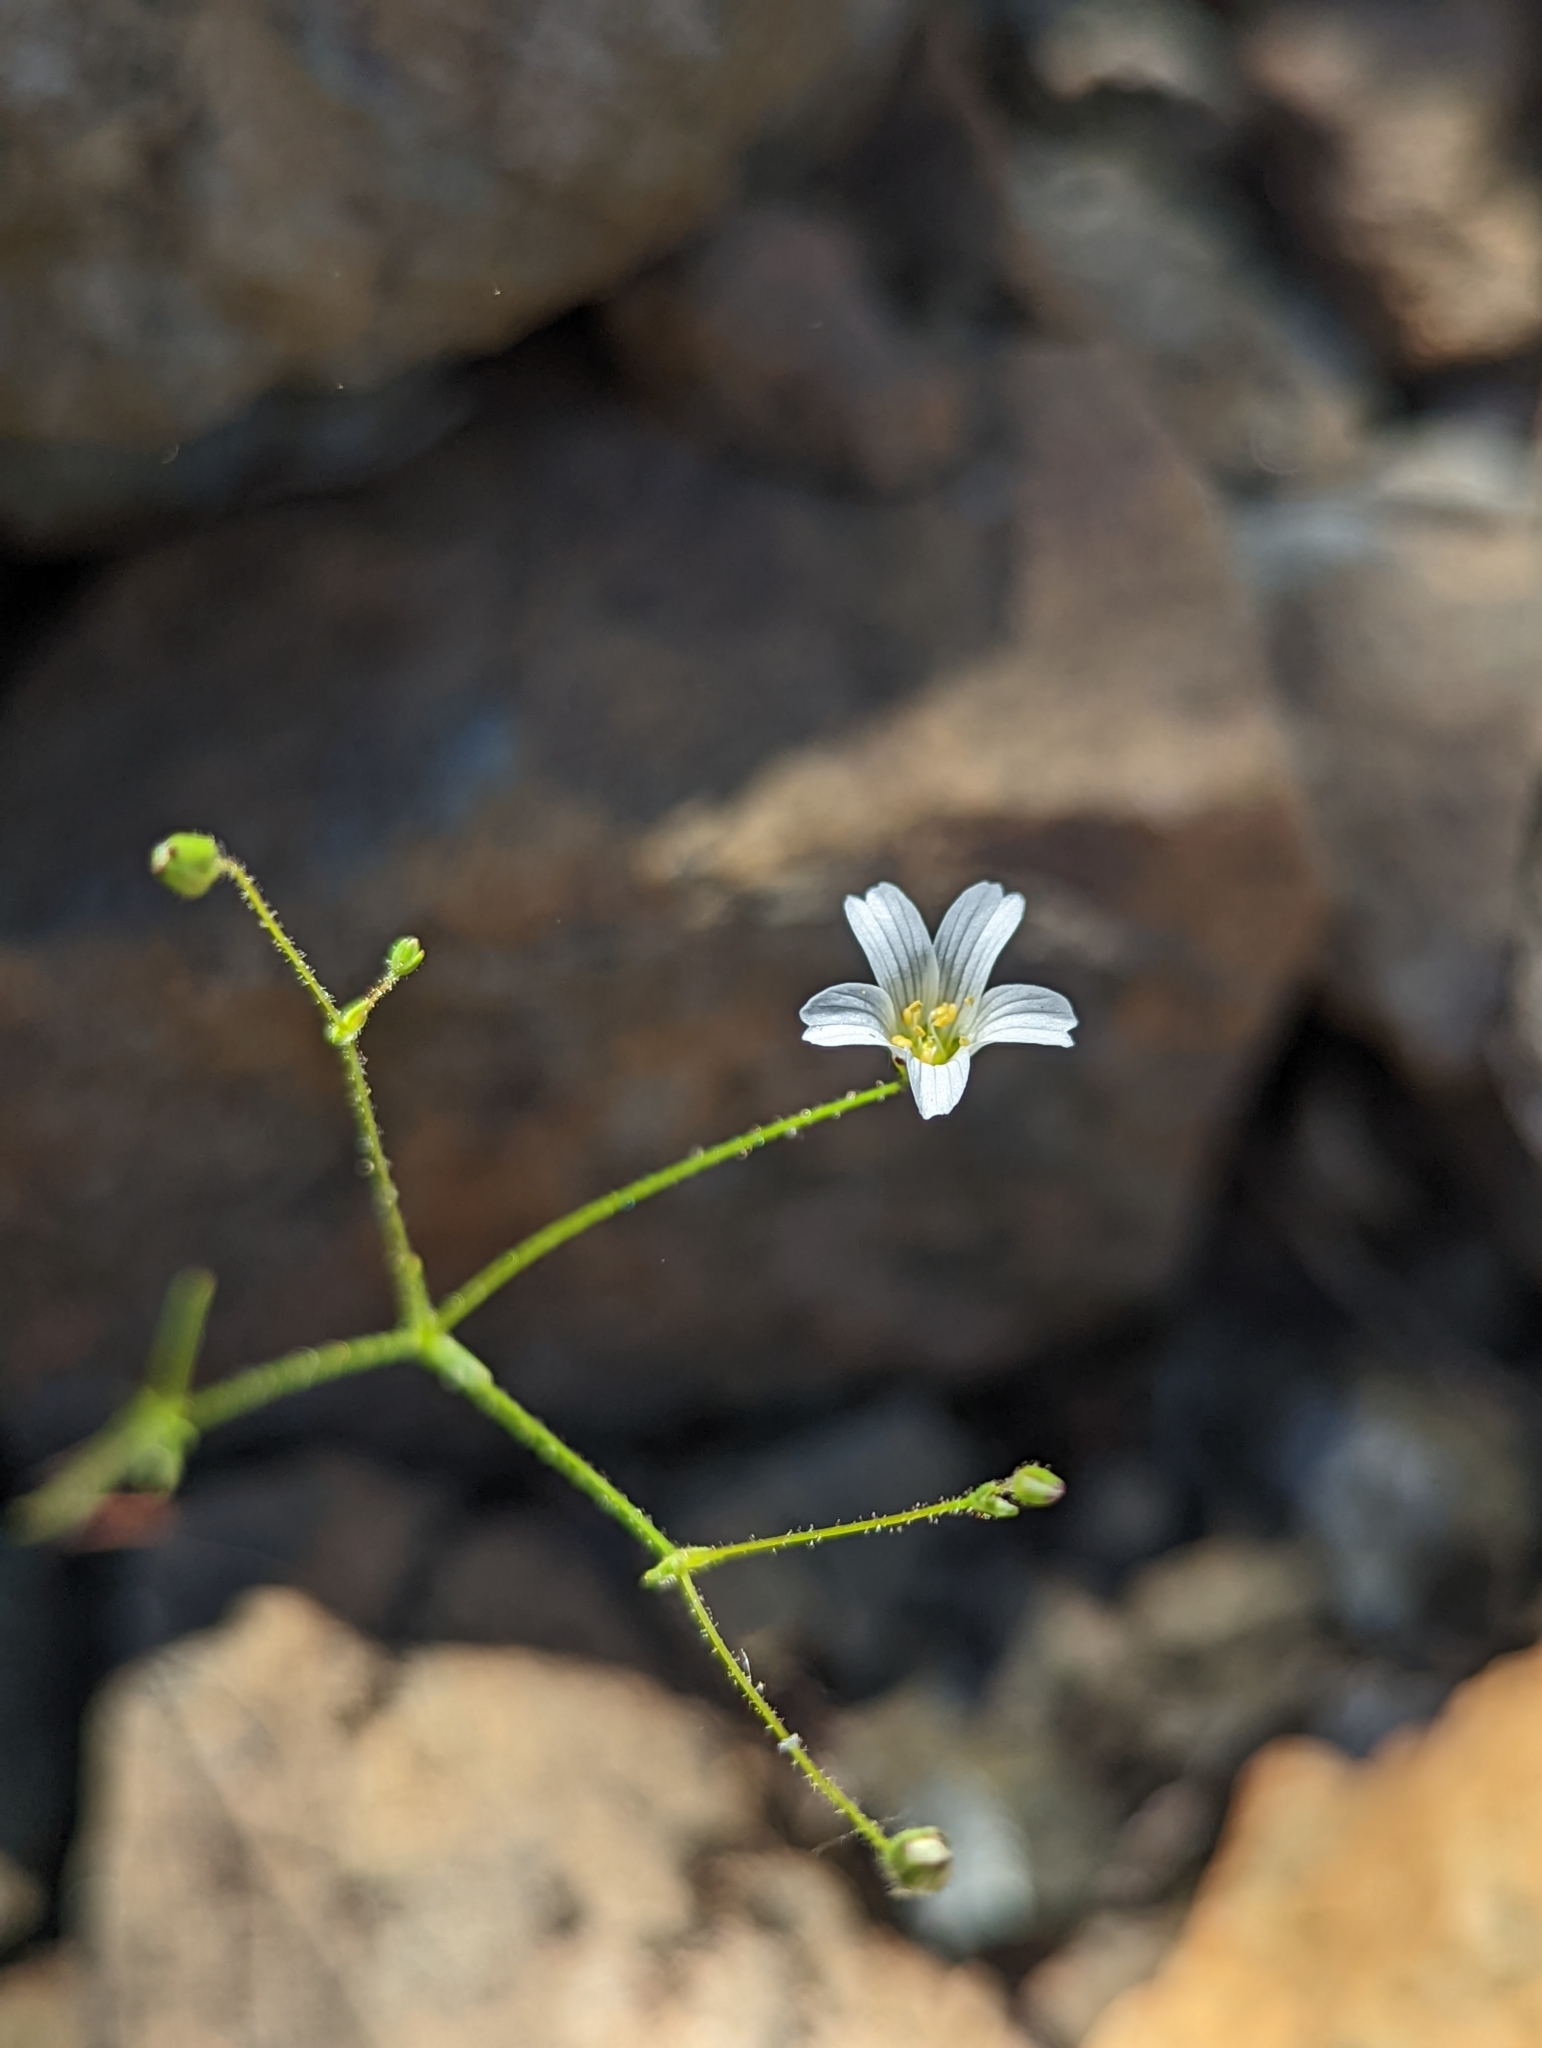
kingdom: Plantae
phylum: Tracheophyta
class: Magnoliopsida
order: Caryophyllales
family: Caryophyllaceae
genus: Sabulina
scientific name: Sabulina douglasii
